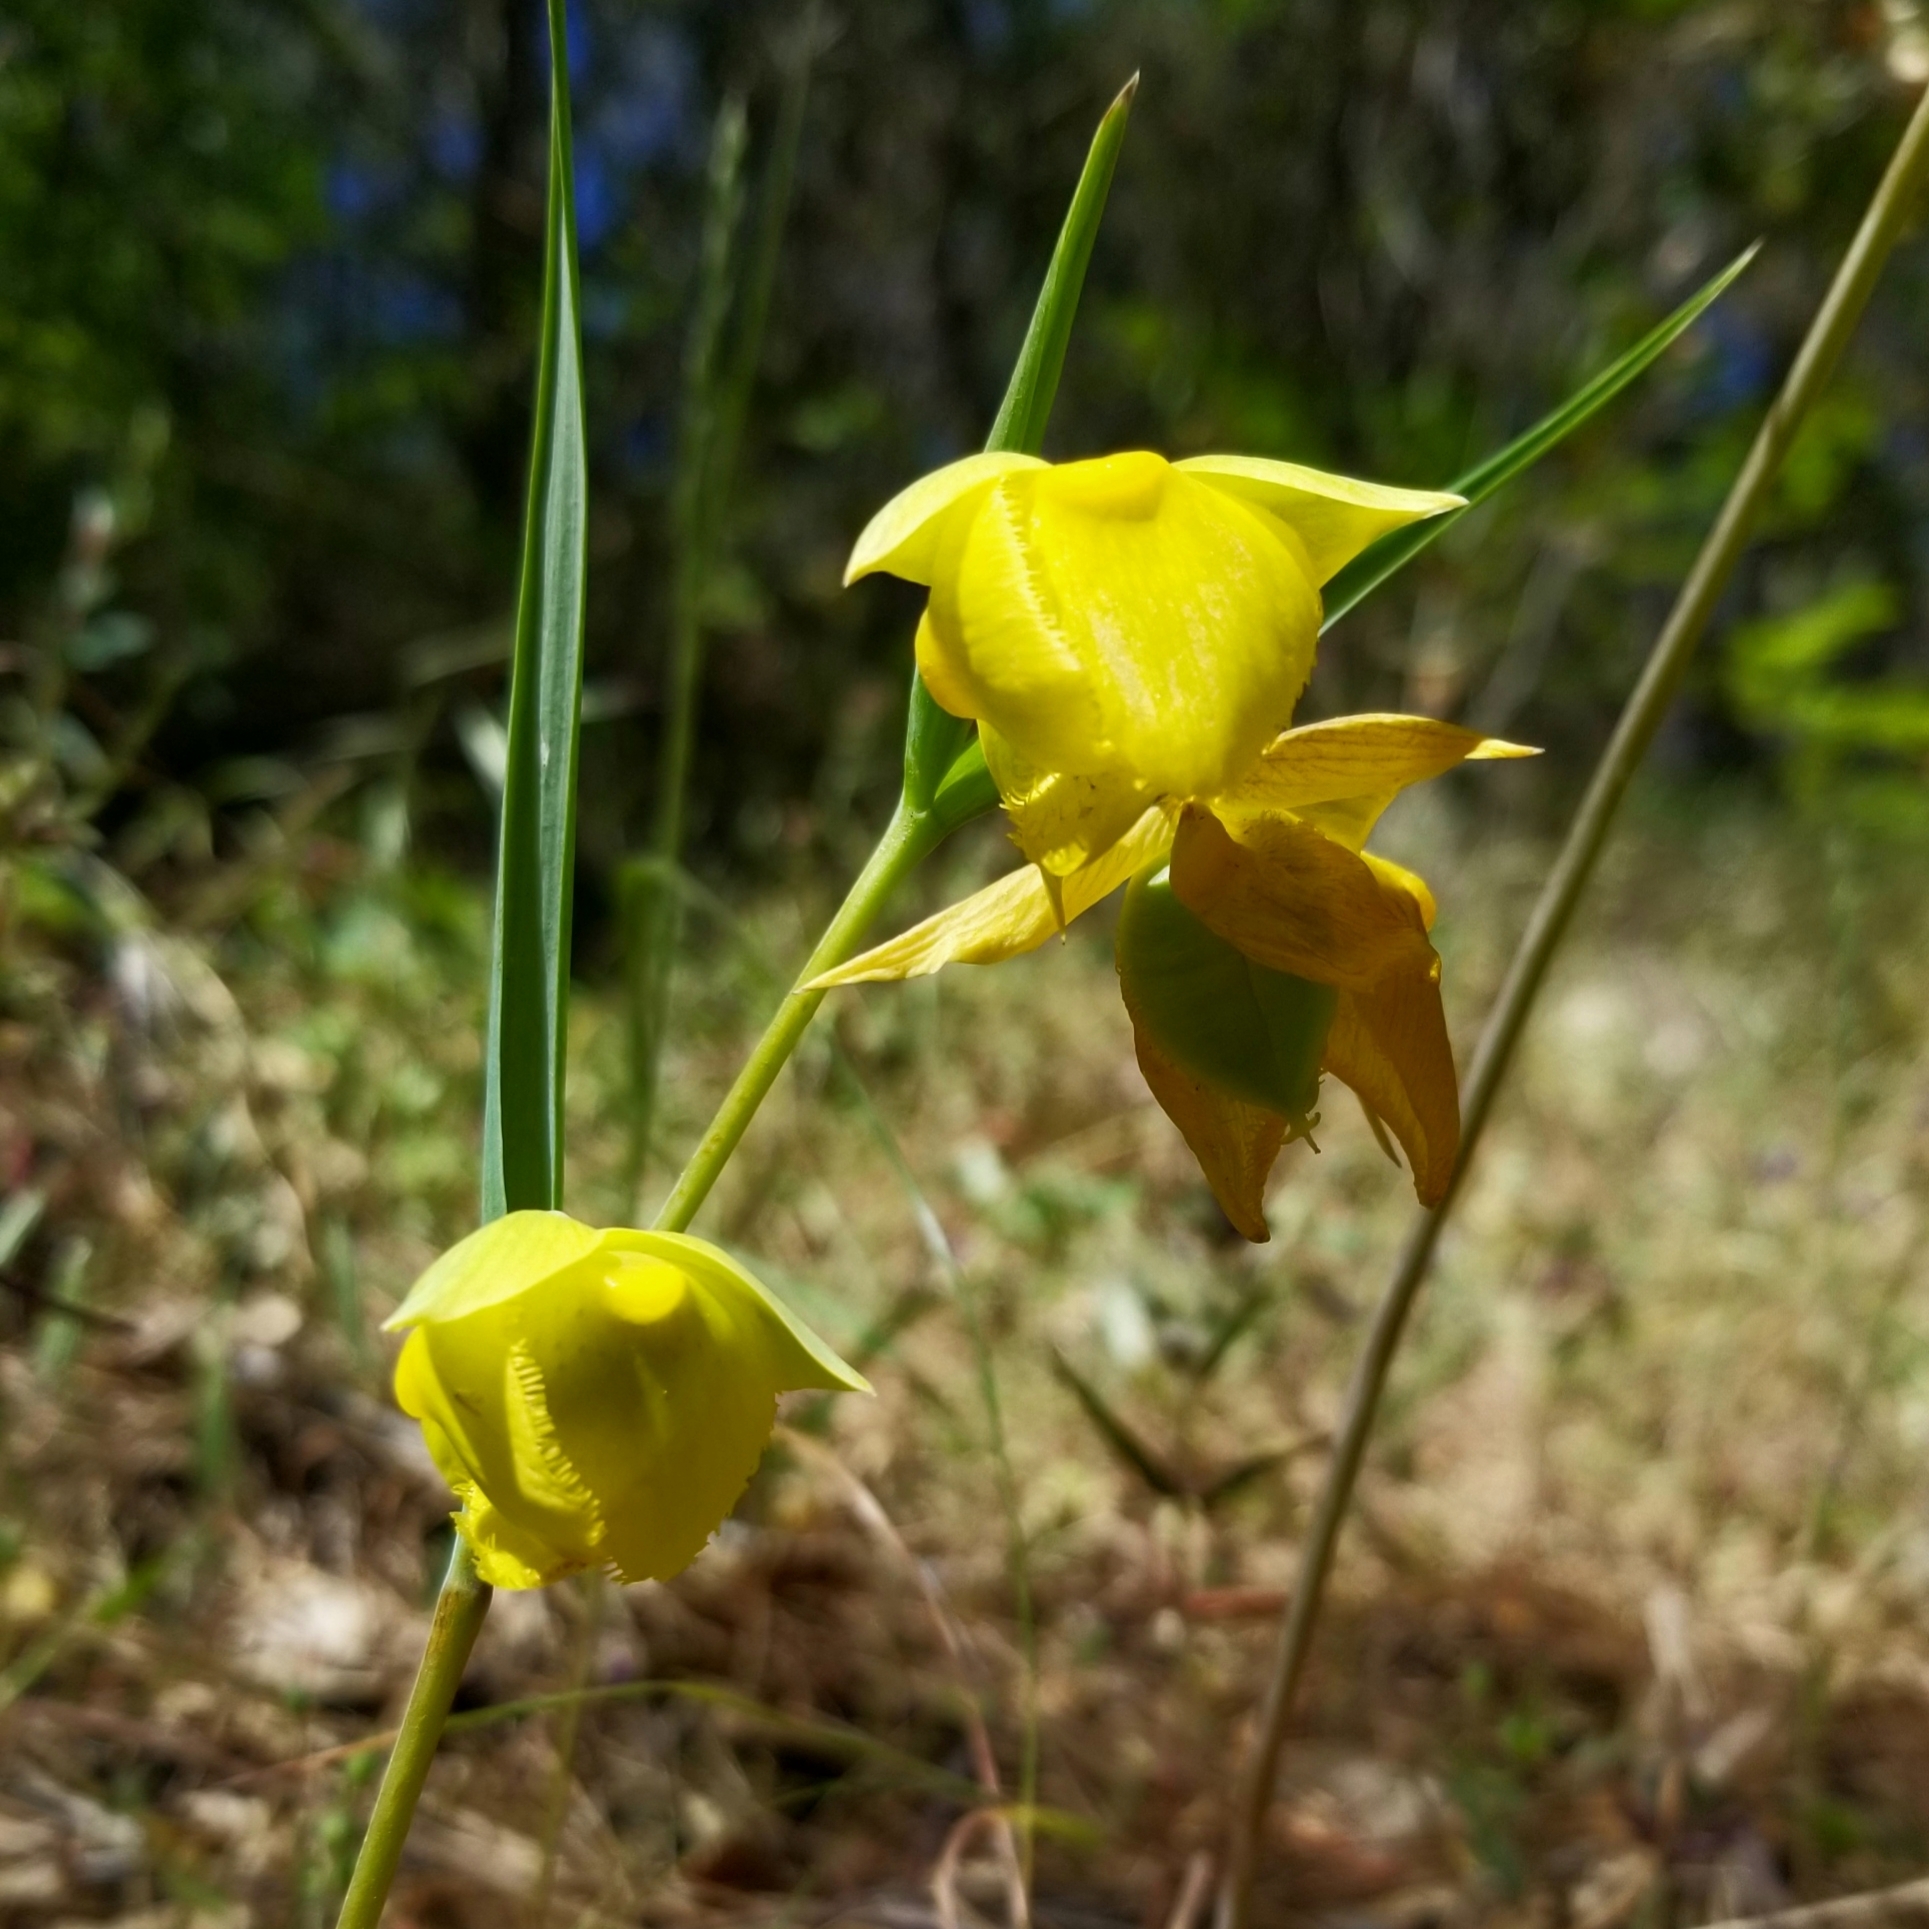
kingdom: Plantae
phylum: Tracheophyta
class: Liliopsida
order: Liliales
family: Liliaceae
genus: Calochortus
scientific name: Calochortus pulchellus
